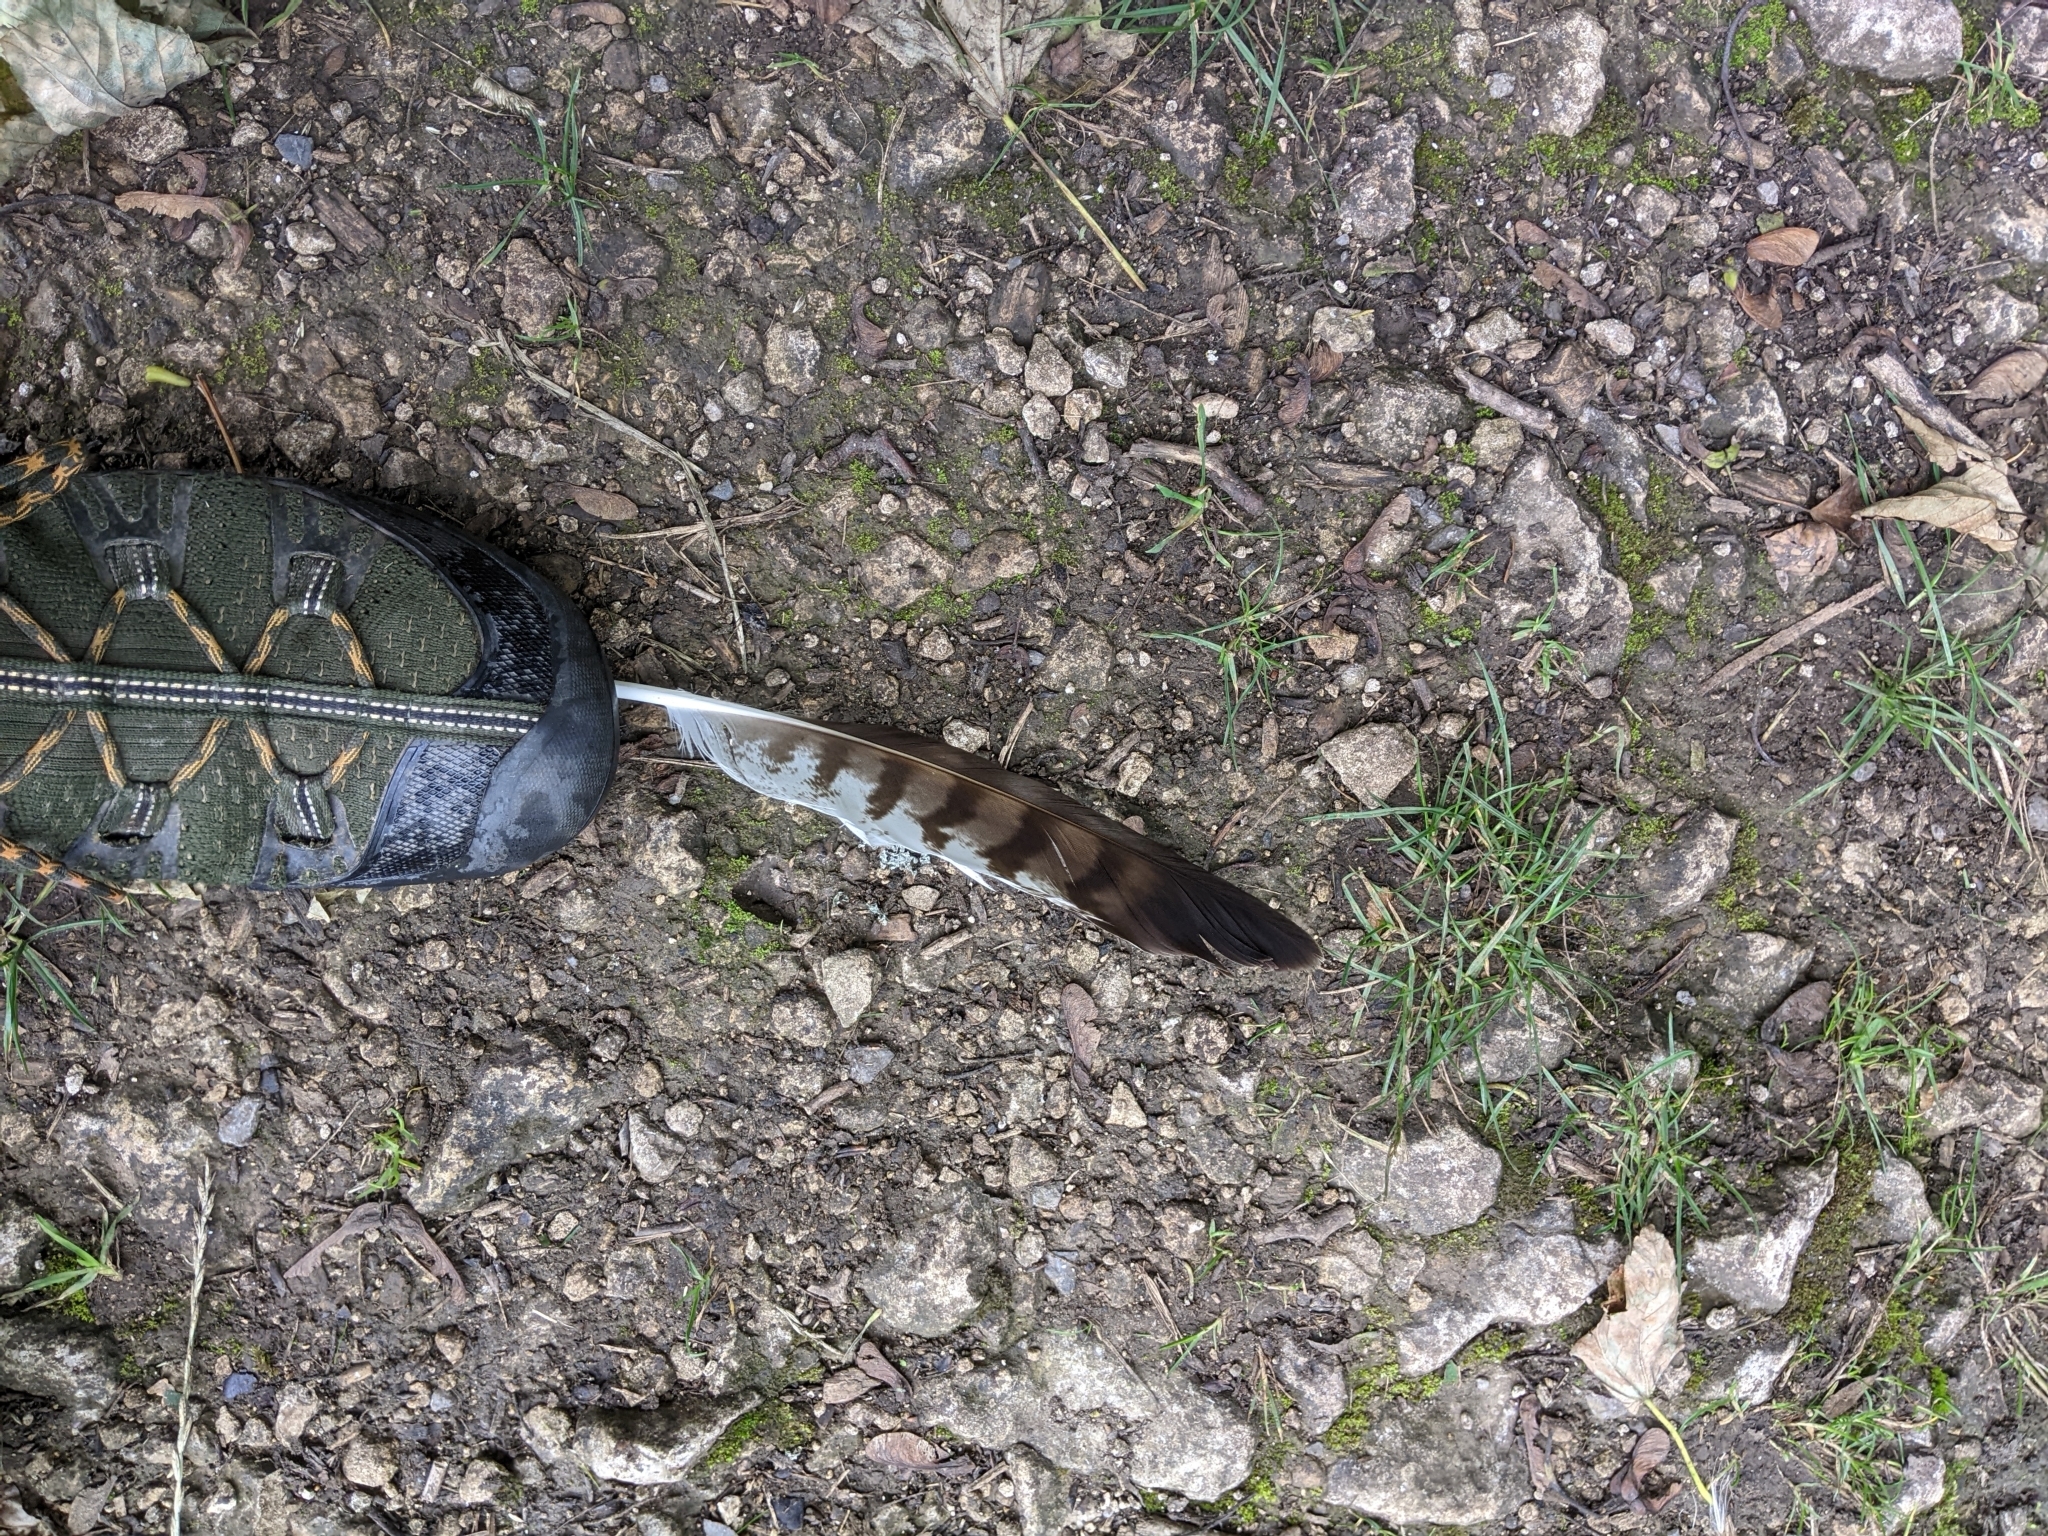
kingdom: Animalia
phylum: Chordata
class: Aves
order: Accipitriformes
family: Accipitridae
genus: Buteo
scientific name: Buteo buteo
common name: Common buzzard
